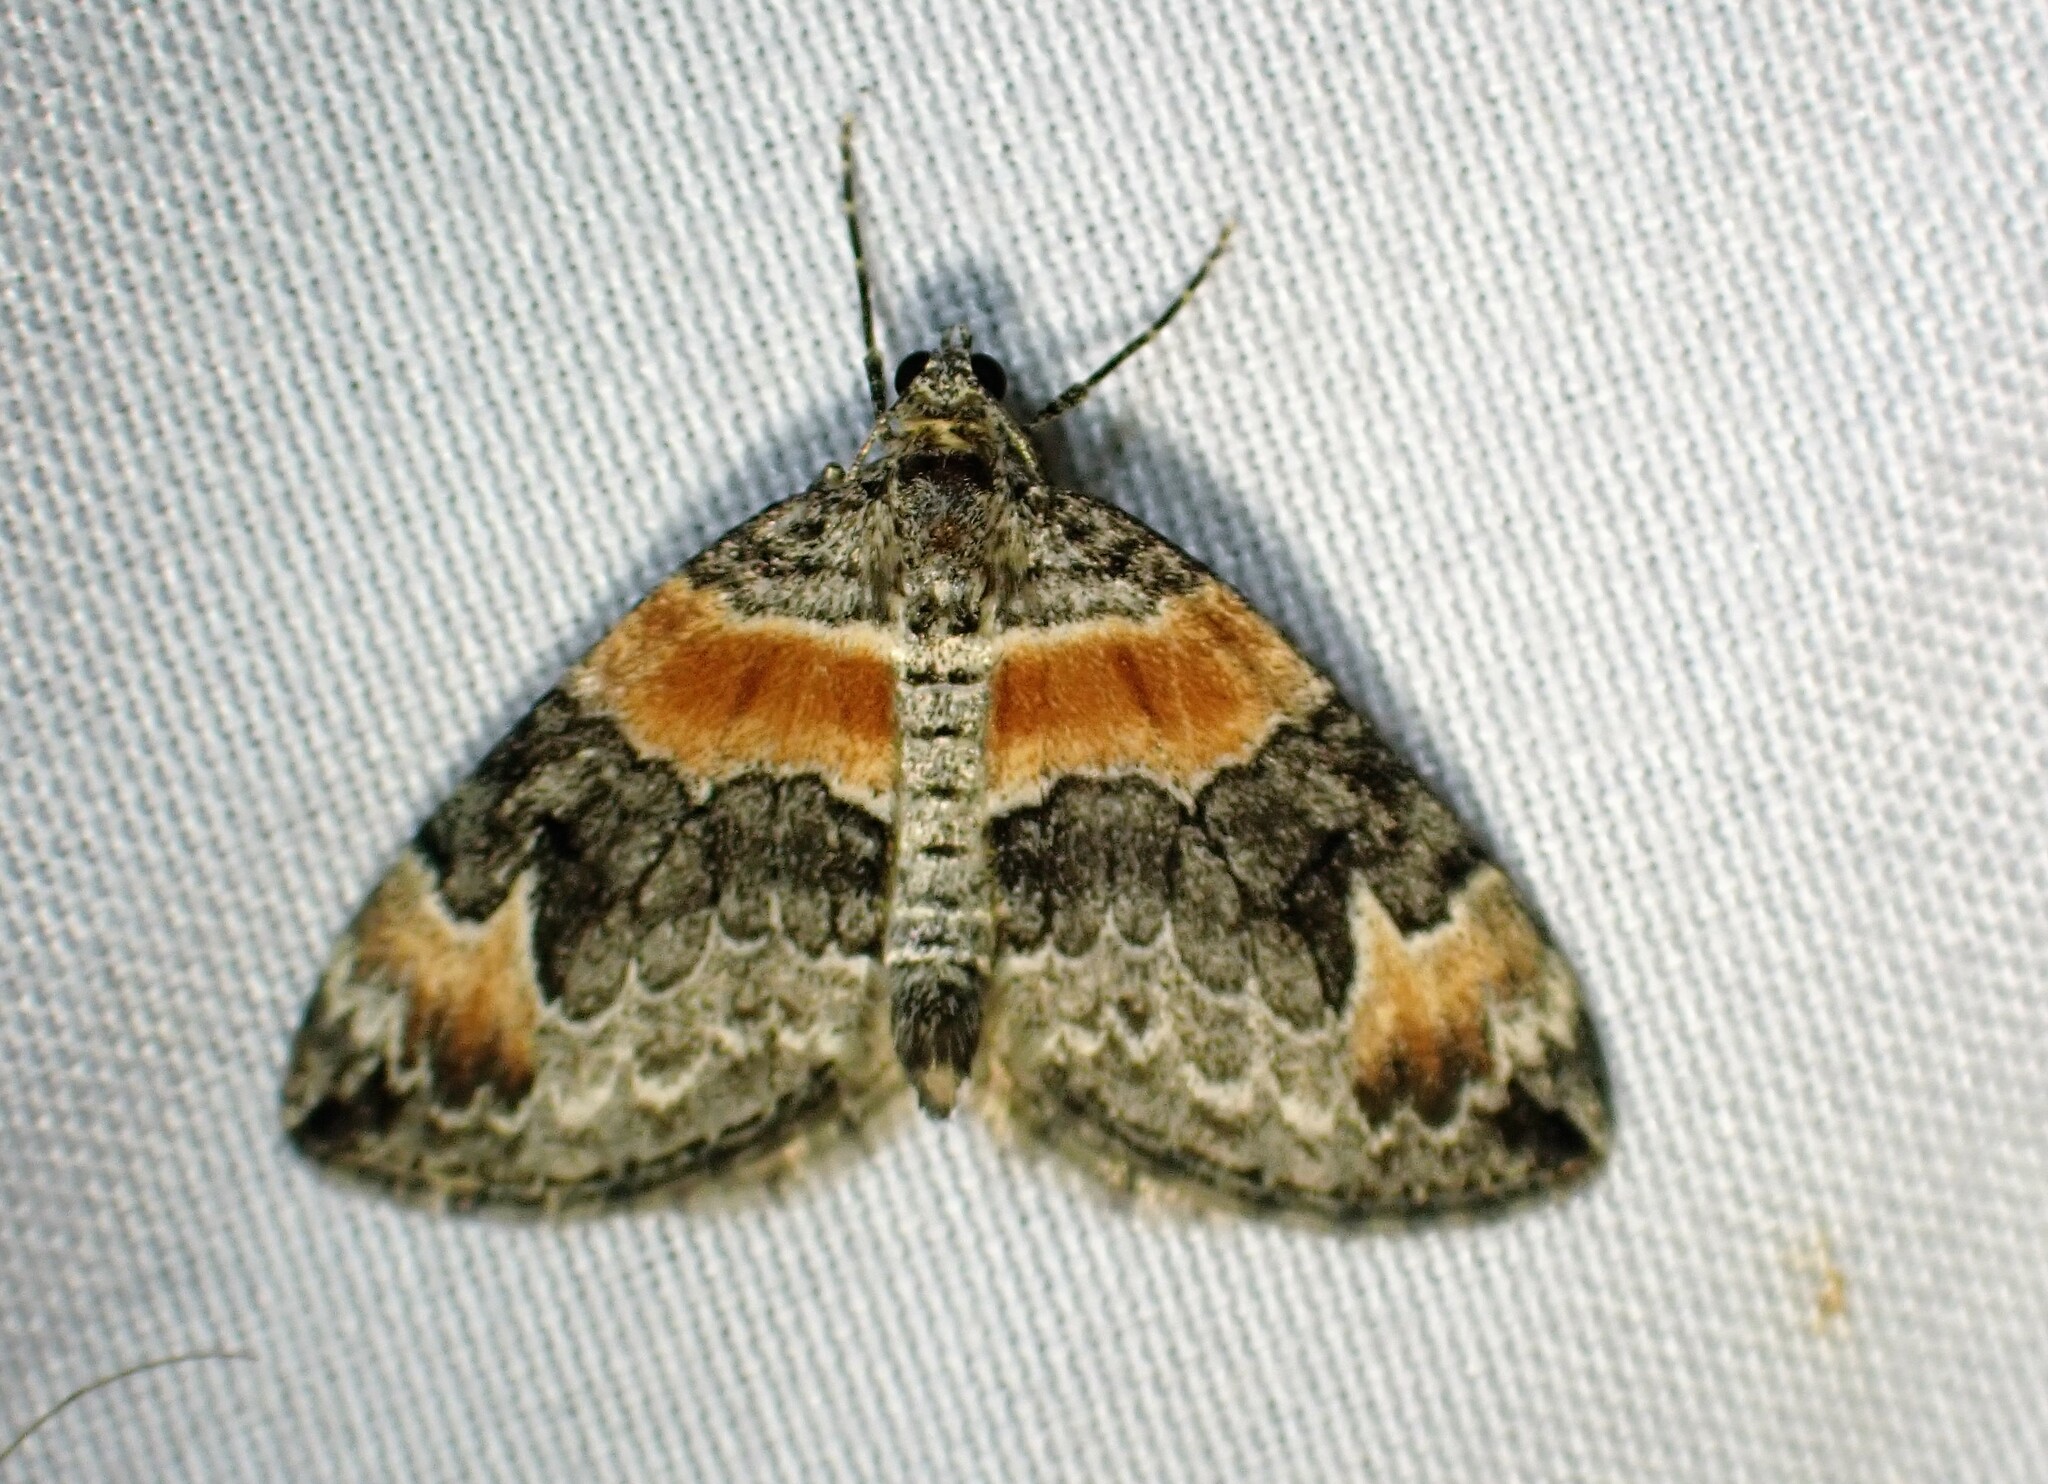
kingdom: Animalia
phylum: Arthropoda
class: Insecta
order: Lepidoptera
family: Geometridae
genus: Dysstroma
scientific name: Dysstroma hersiliata
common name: Orange-barred carpet
